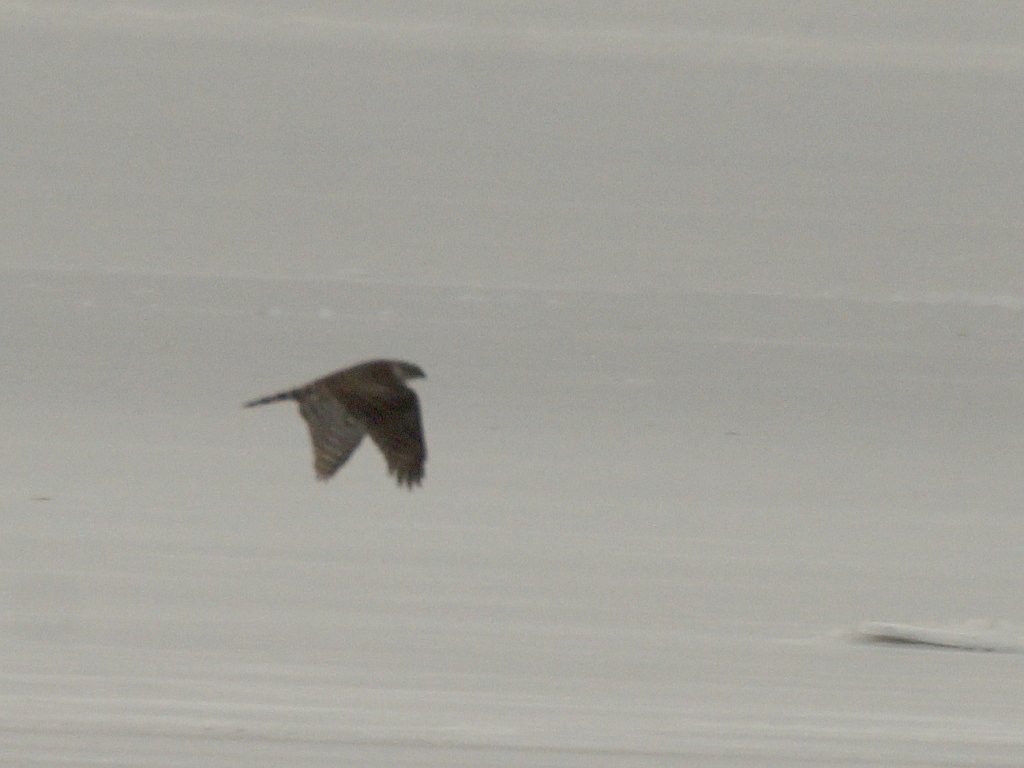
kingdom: Animalia
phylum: Chordata
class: Aves
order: Accipitriformes
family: Accipitridae
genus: Accipiter
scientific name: Accipiter gentilis
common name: Northern goshawk
